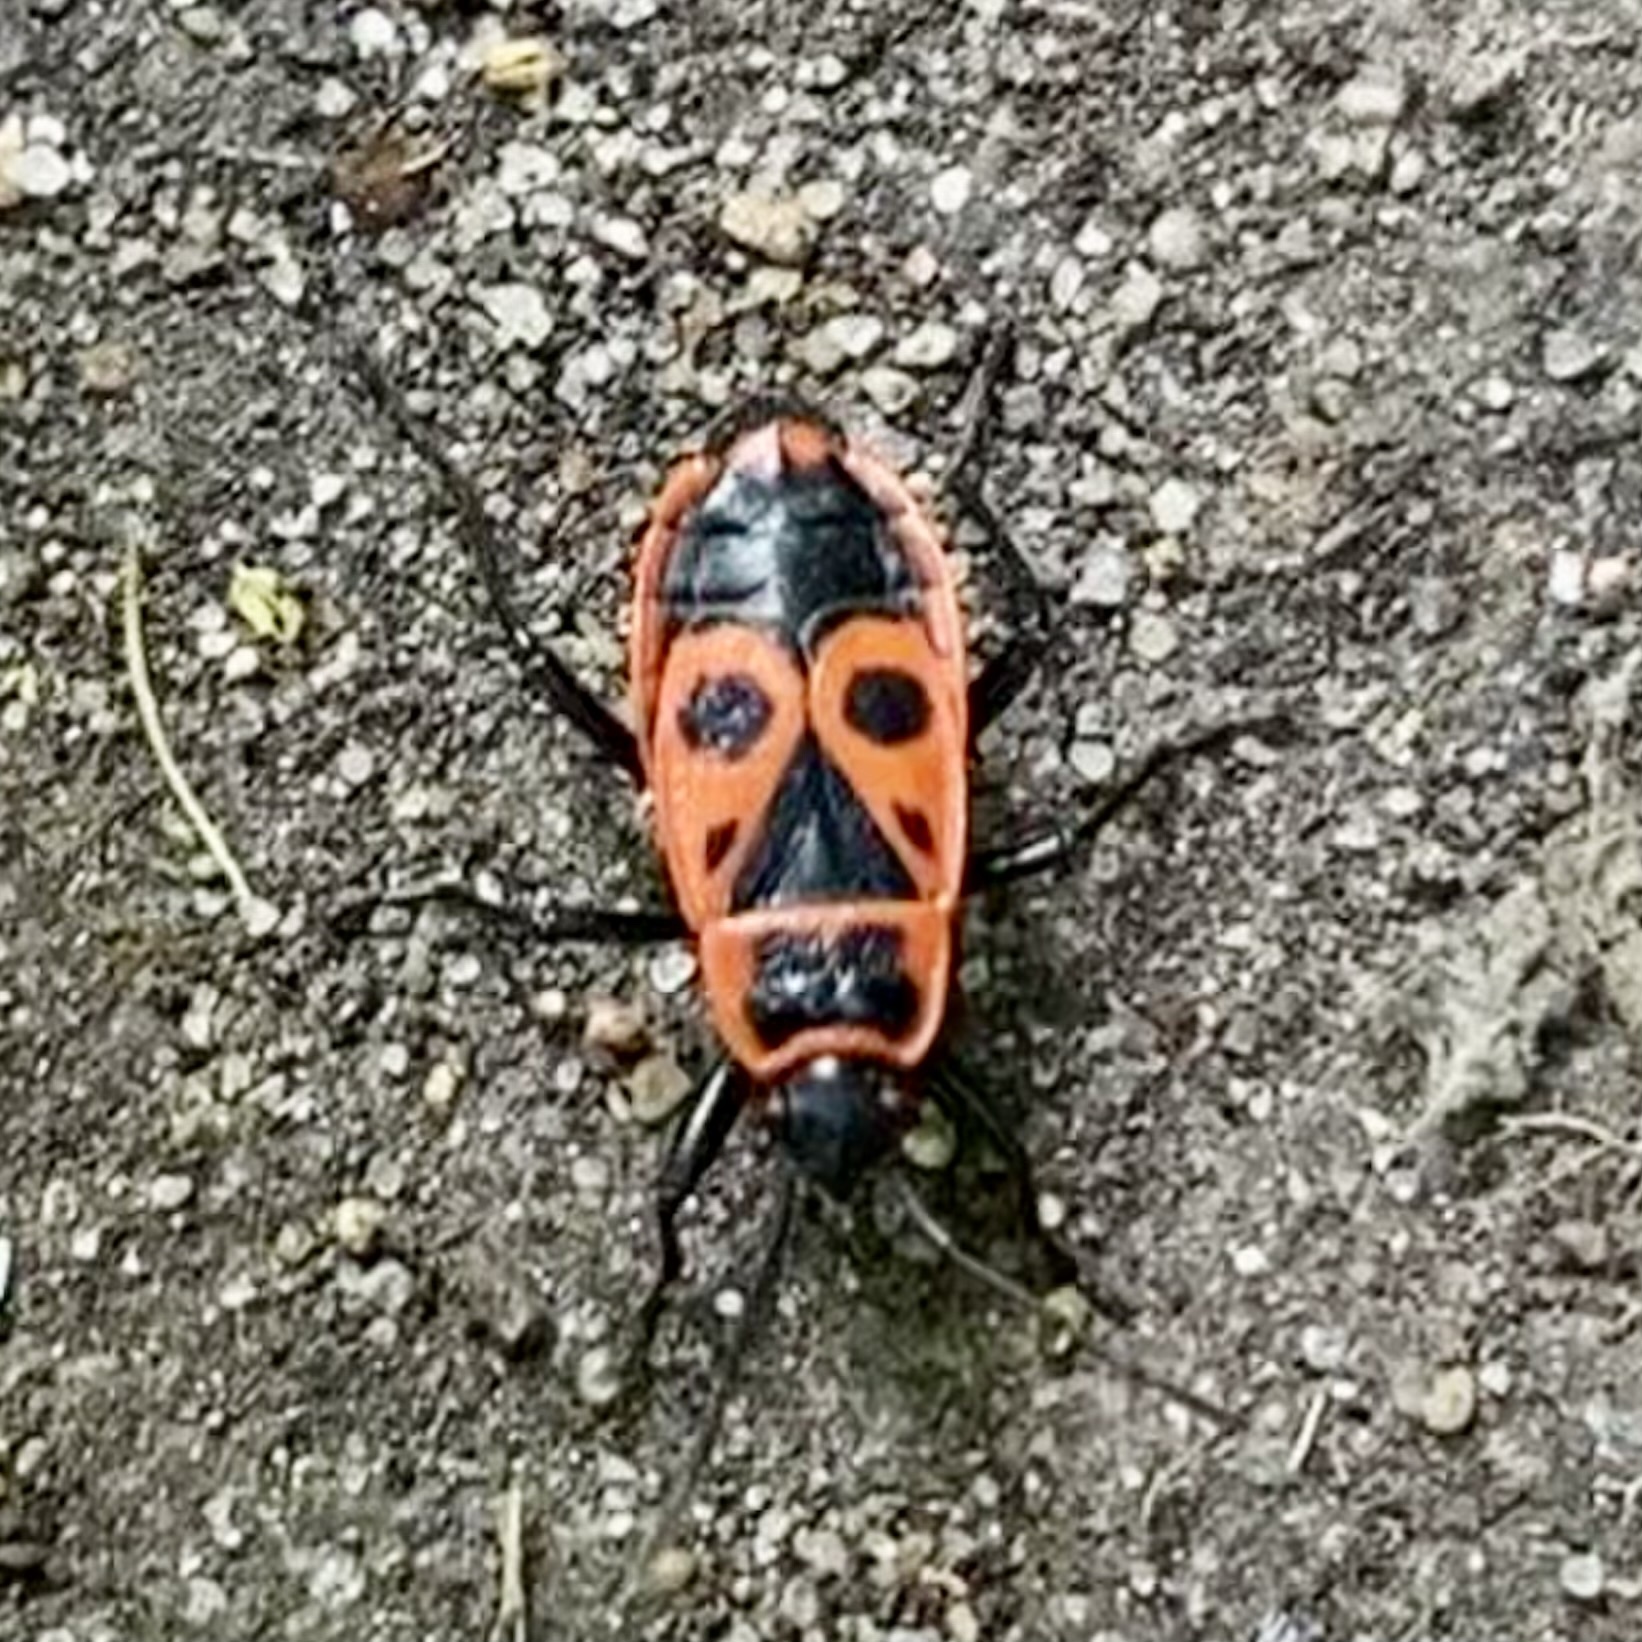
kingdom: Animalia
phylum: Arthropoda
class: Insecta
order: Hemiptera
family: Pyrrhocoridae
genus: Pyrrhocoris
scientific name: Pyrrhocoris apterus
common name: Firebug
